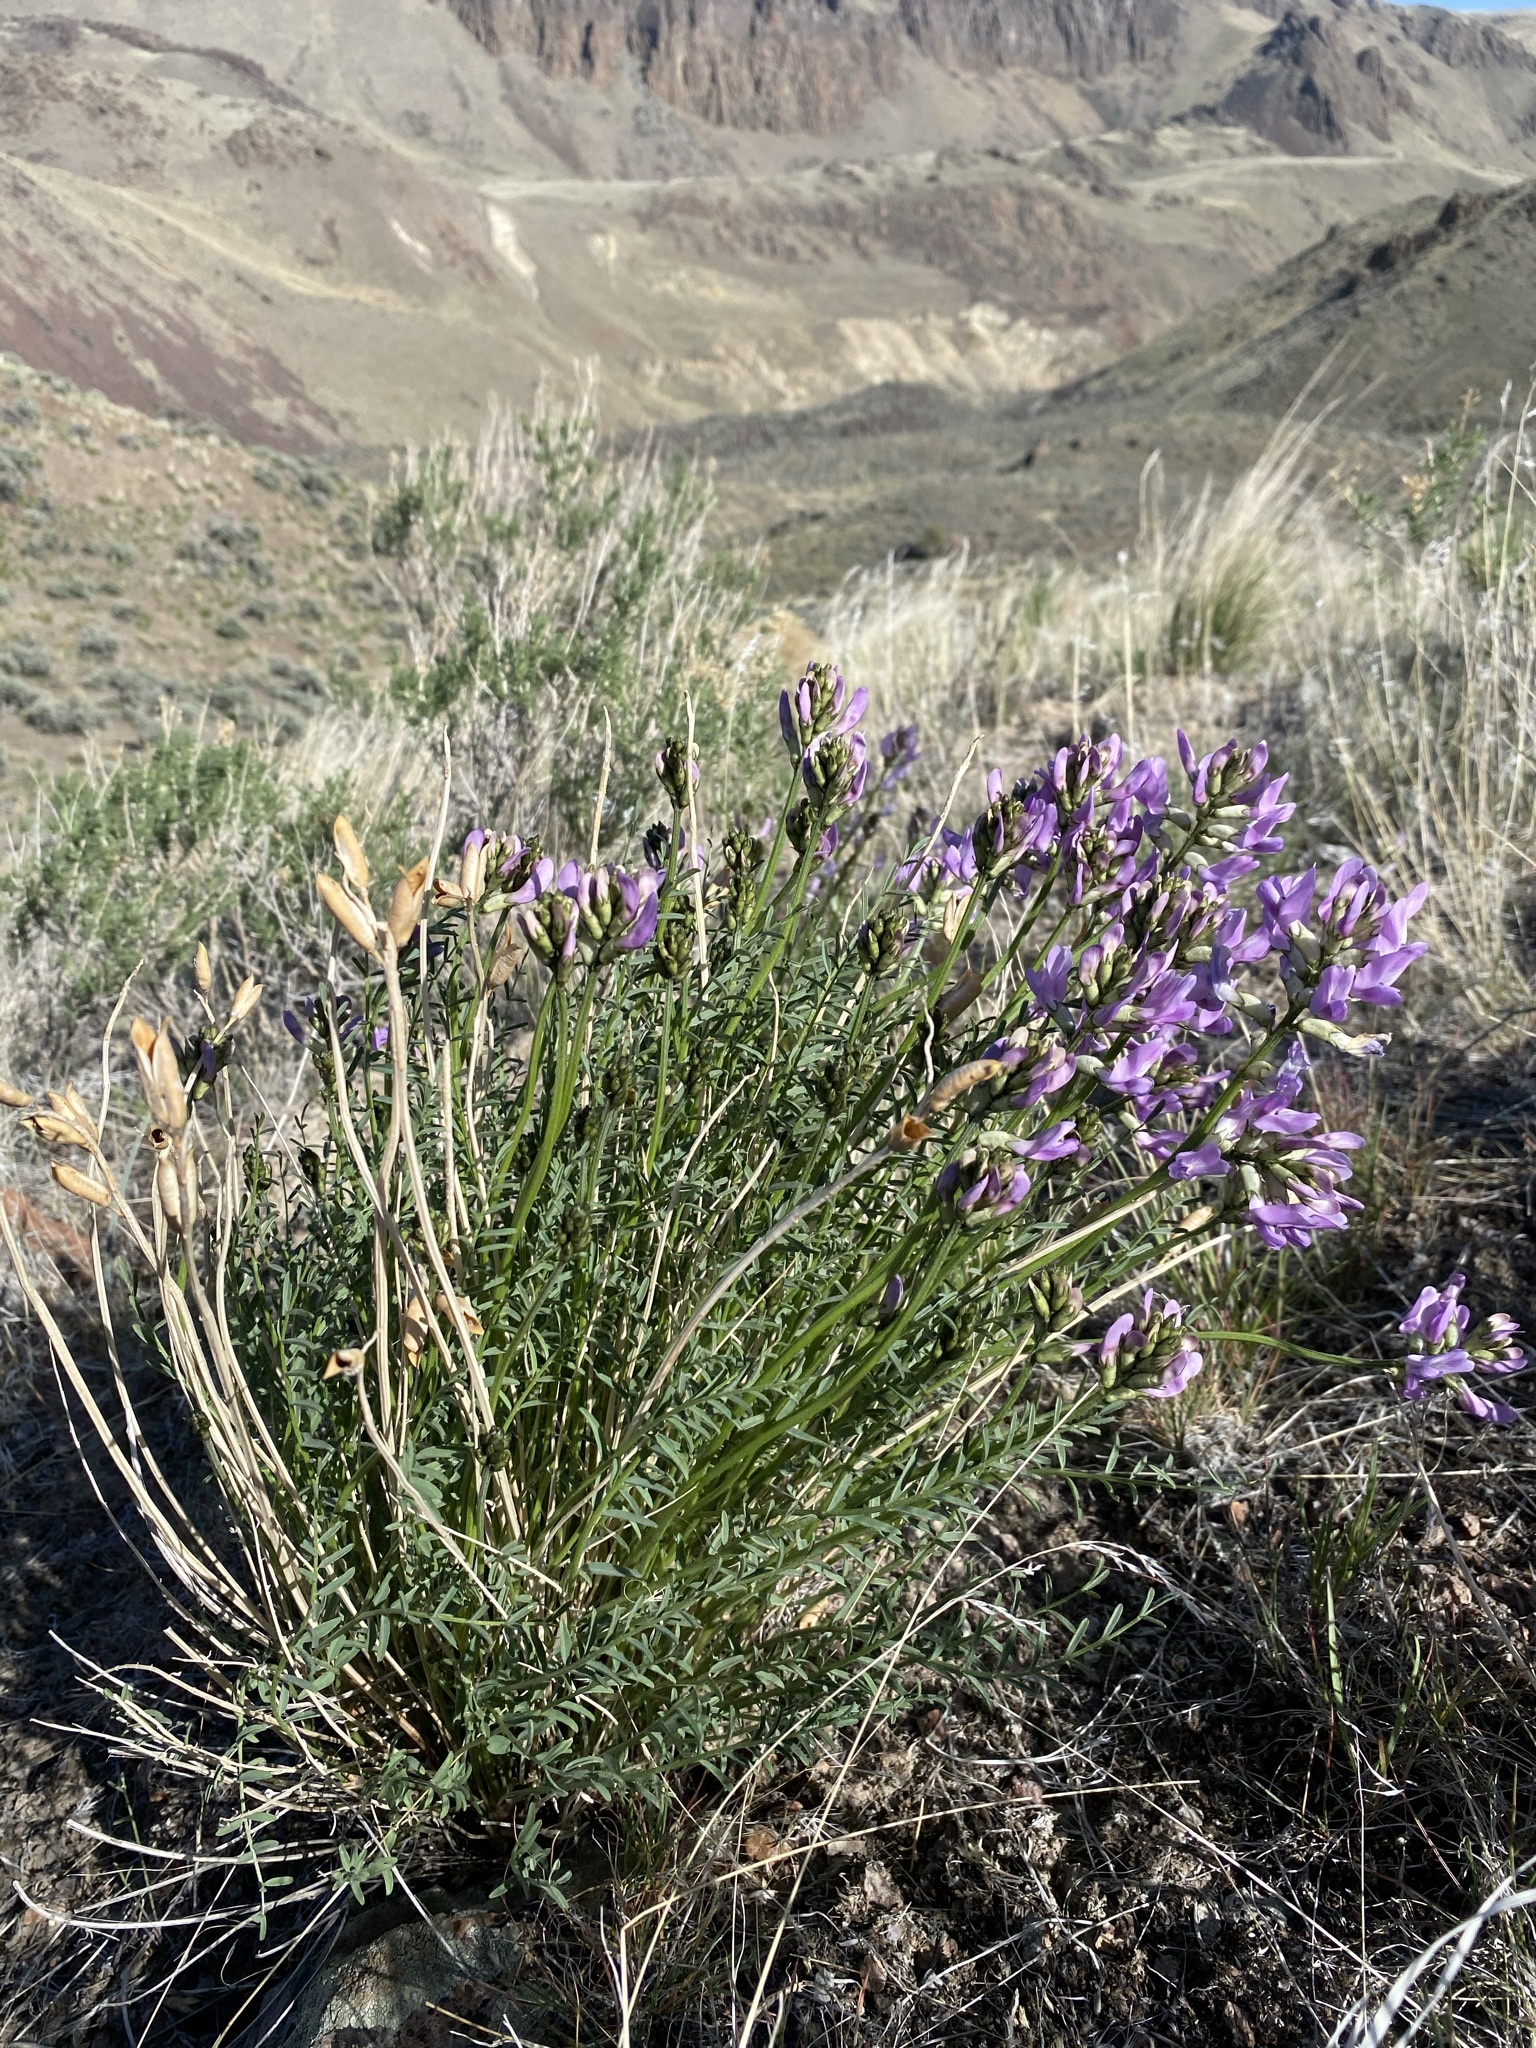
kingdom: Plantae
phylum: Tracheophyta
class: Magnoliopsida
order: Fabales
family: Fabaceae
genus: Astragalus
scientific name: Astragalus conjunctus
